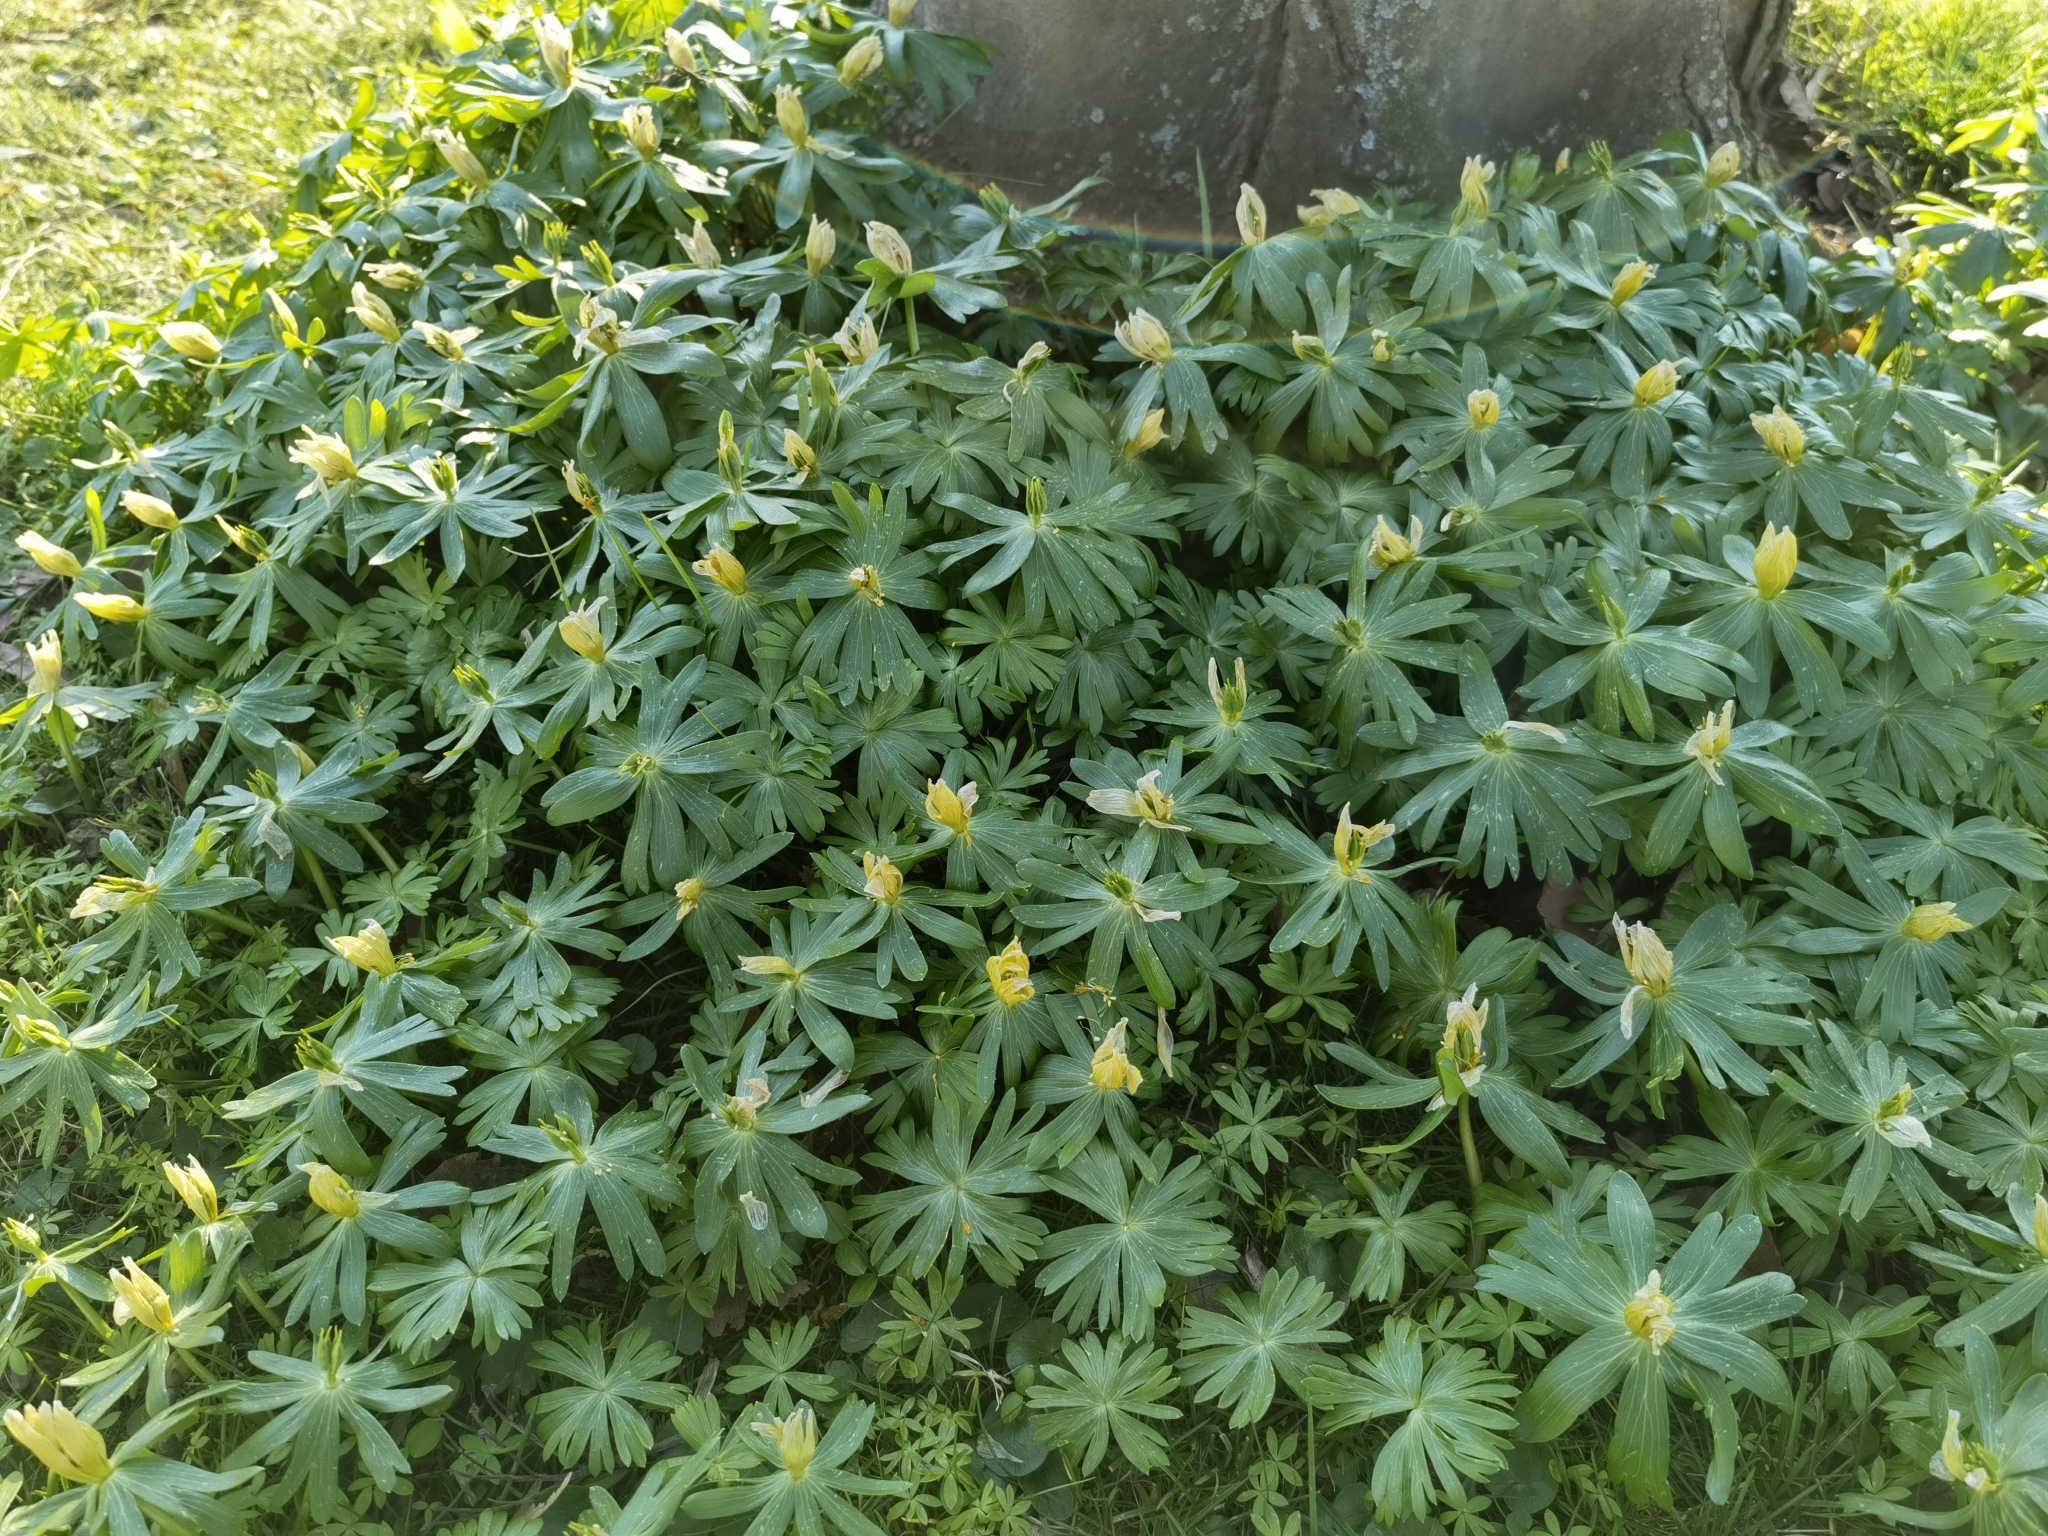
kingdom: Plantae
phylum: Tracheophyta
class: Magnoliopsida
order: Ranunculales
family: Ranunculaceae
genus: Eranthis
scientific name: Eranthis hyemalis
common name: Winter aconite
